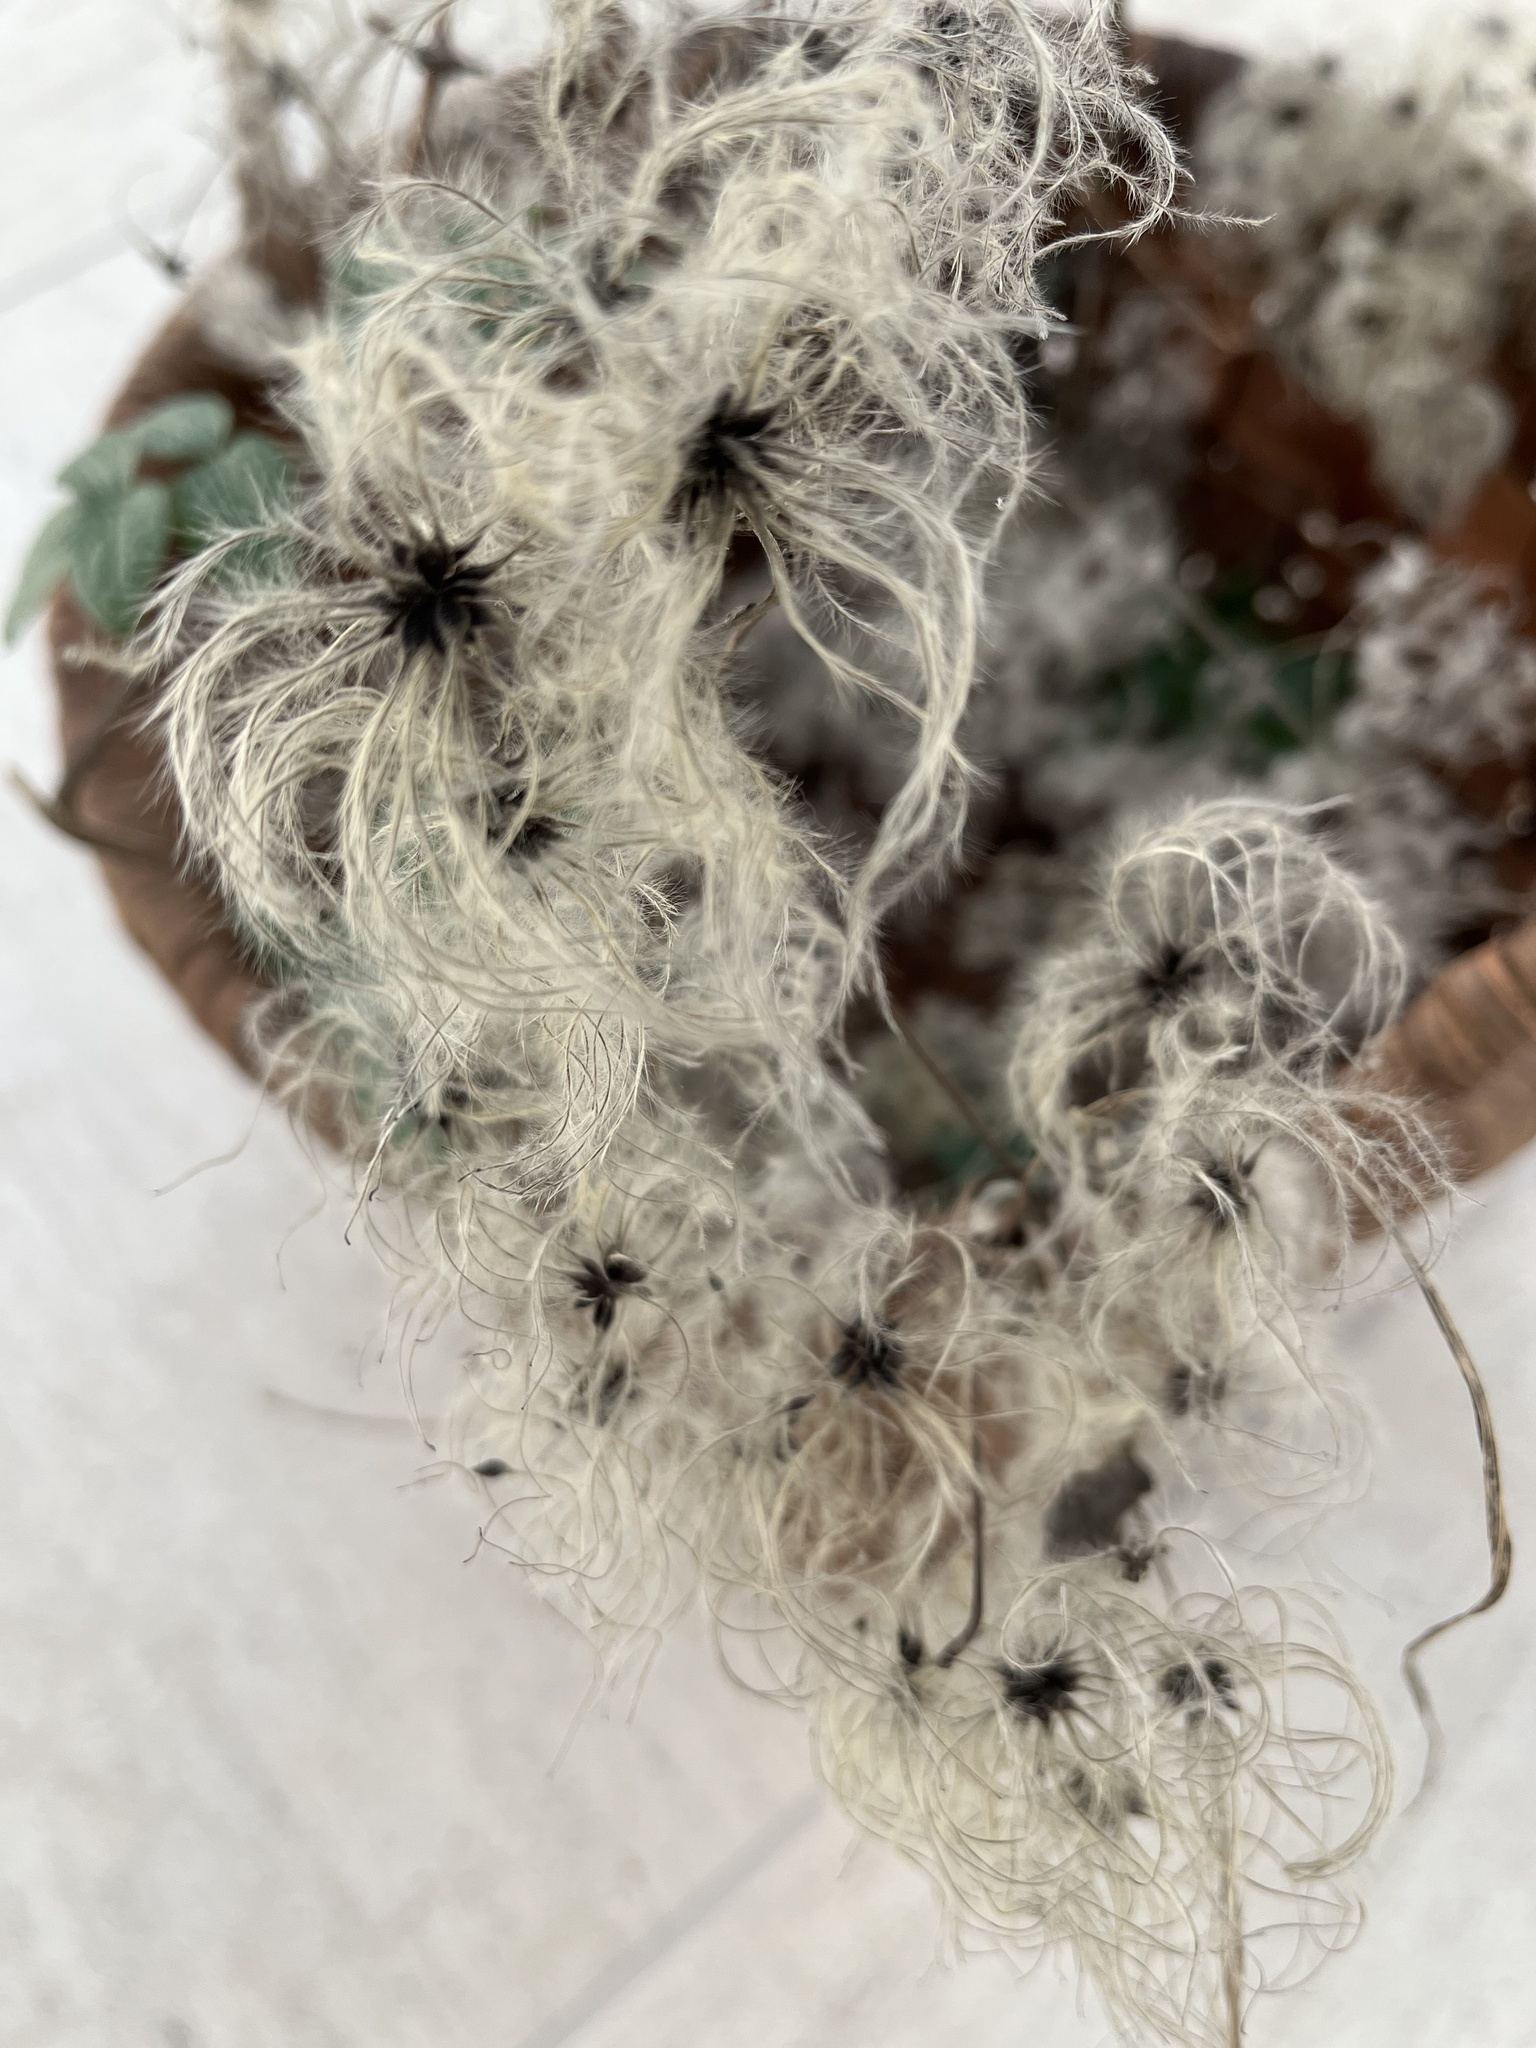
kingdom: Plantae
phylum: Tracheophyta
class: Magnoliopsida
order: Ranunculales
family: Ranunculaceae
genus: Clematis
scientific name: Clematis vitalba
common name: Evergreen clematis
